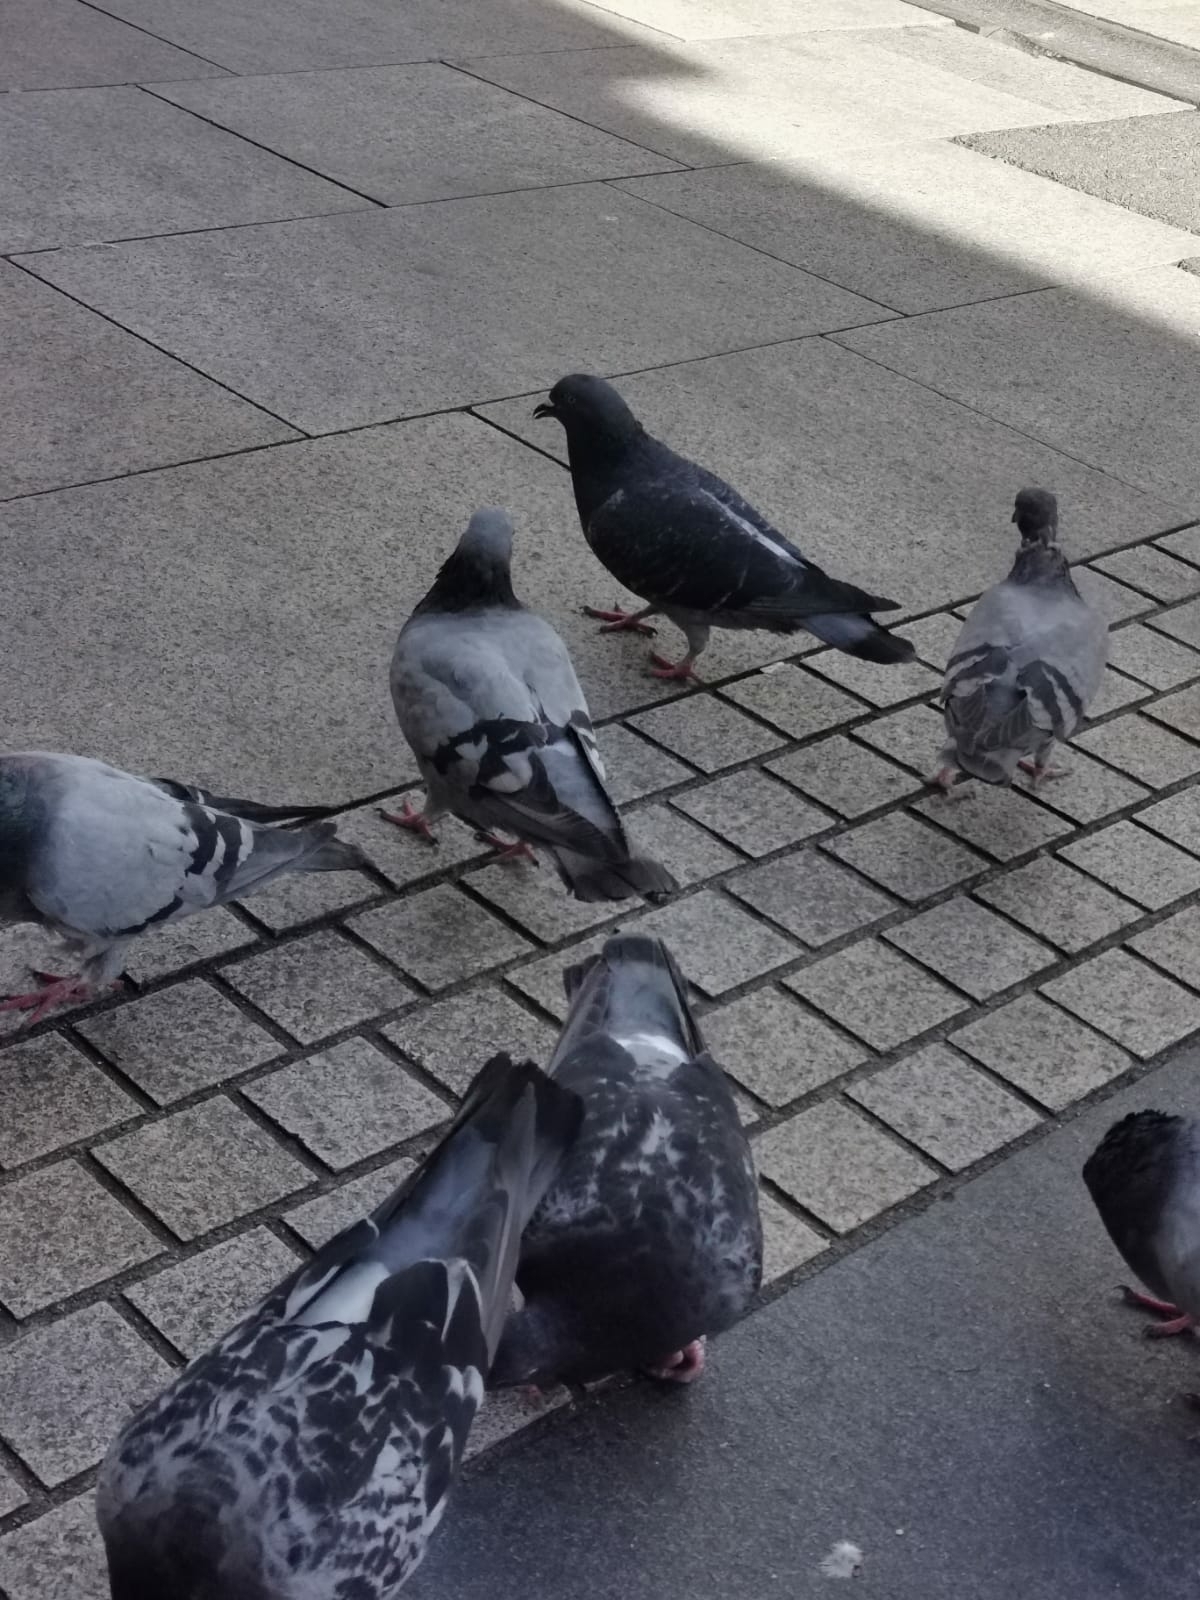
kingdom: Animalia
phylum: Chordata
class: Aves
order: Columbiformes
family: Columbidae
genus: Columba
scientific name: Columba livia
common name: Rock pigeon
